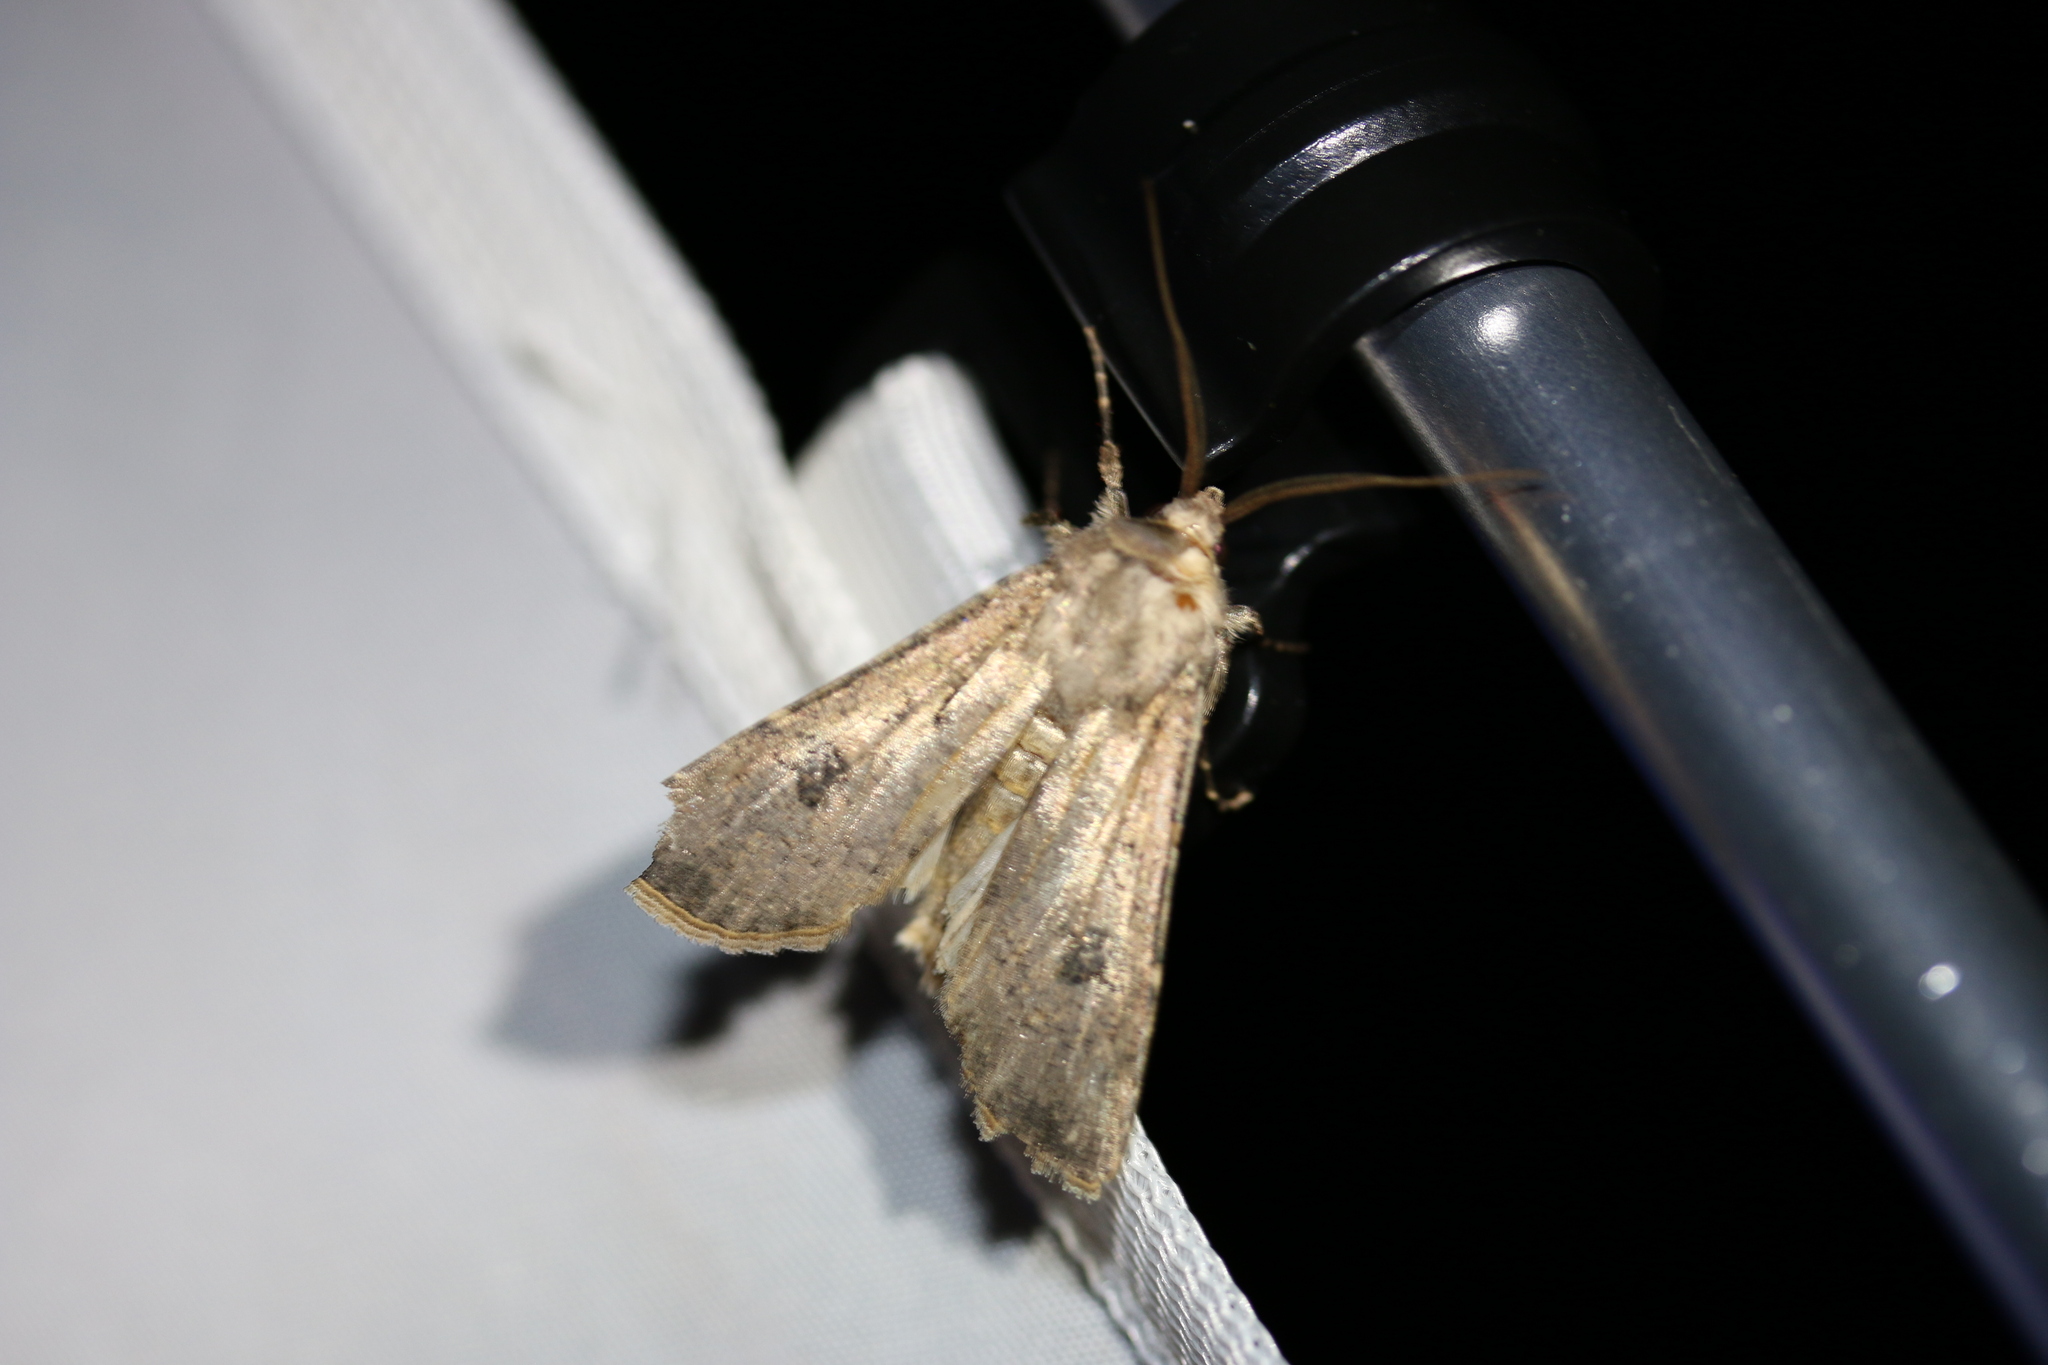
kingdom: Animalia
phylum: Arthropoda
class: Insecta
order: Lepidoptera
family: Noctuidae
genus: Agrotis
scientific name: Agrotis segetum
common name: Turnip moth
